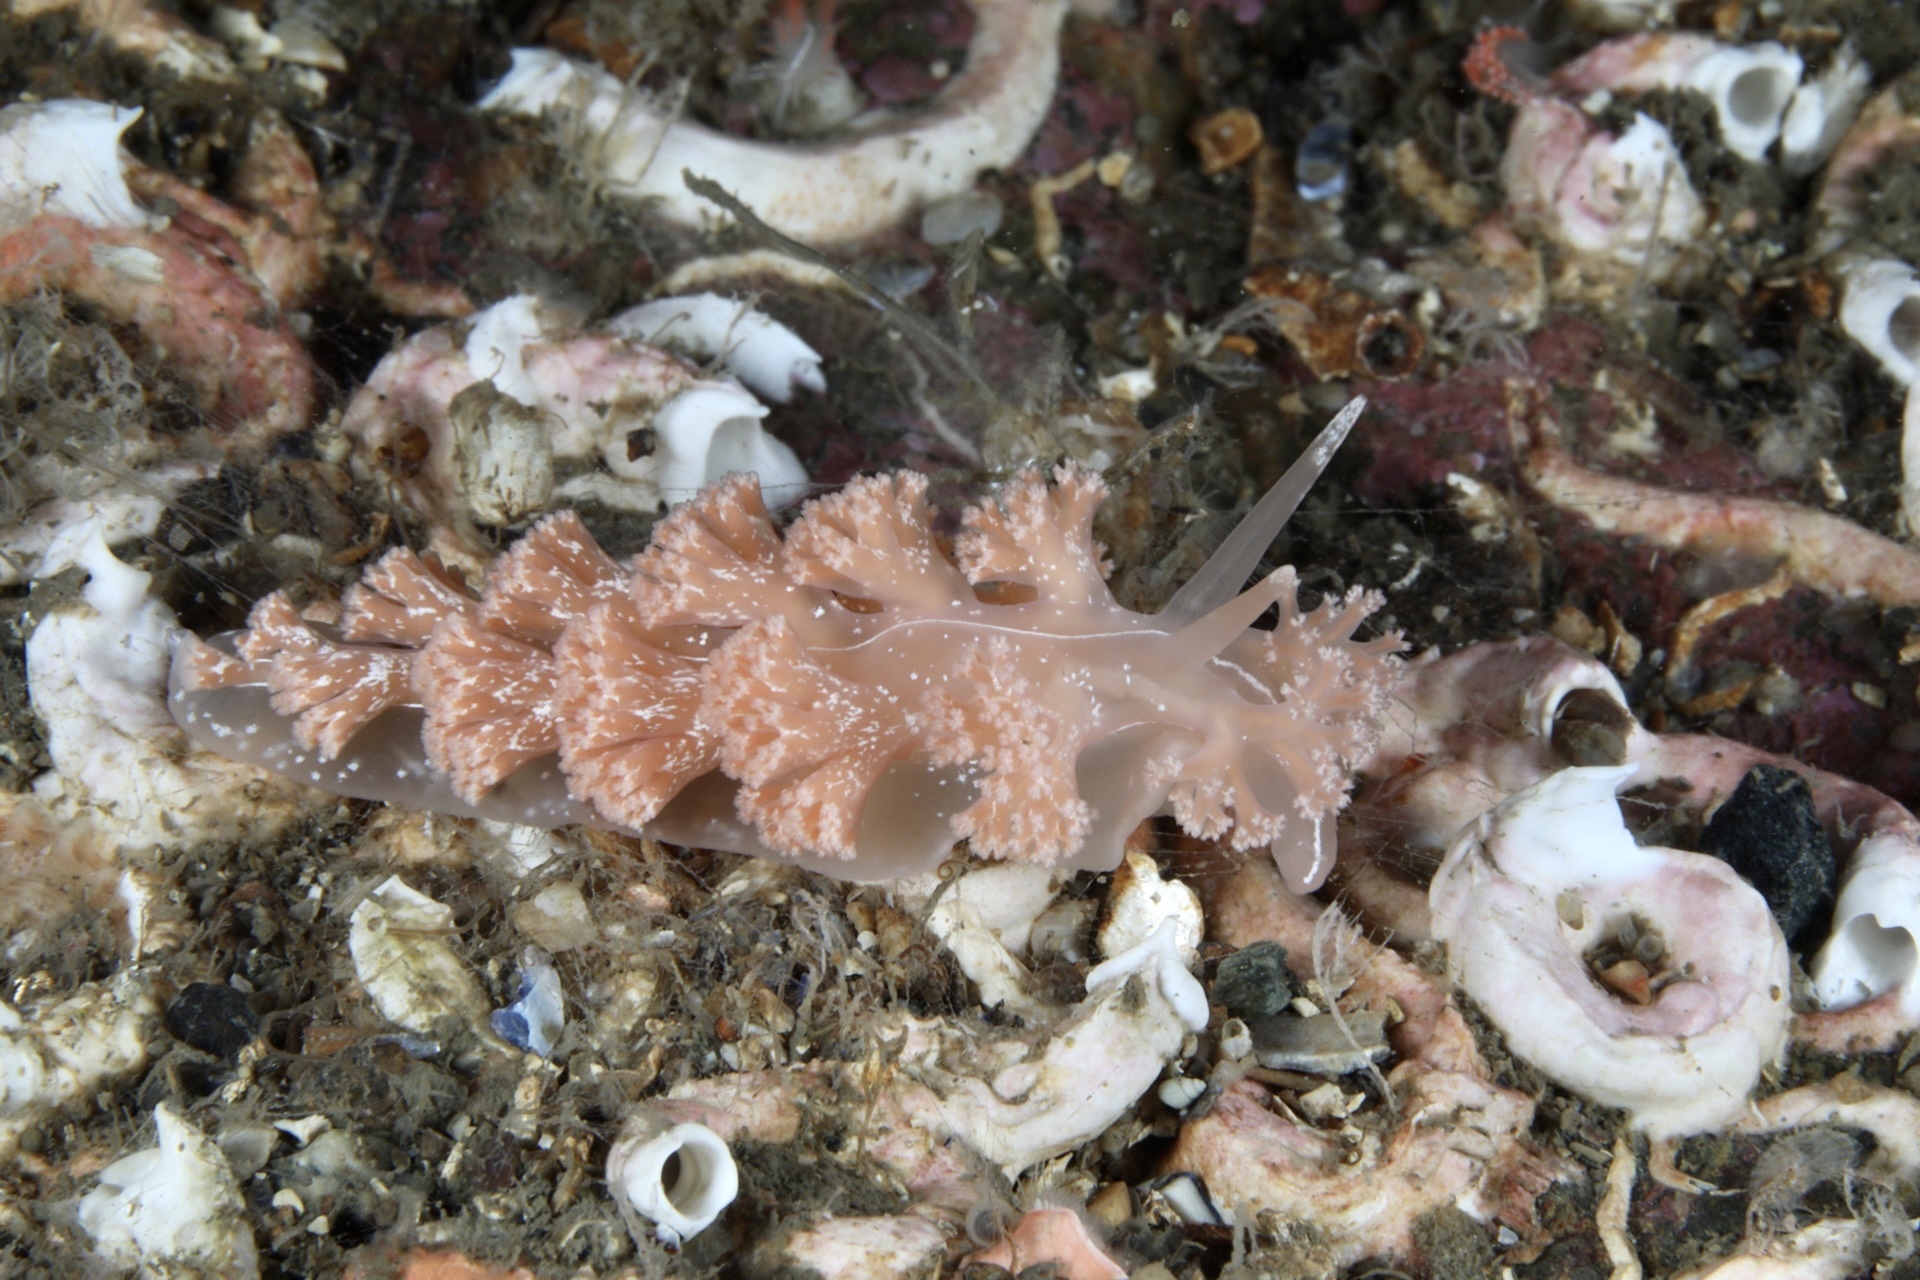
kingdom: Animalia
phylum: Mollusca
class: Gastropoda
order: Nudibranchia
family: Heroidae
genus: Hero
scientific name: Hero formosa
